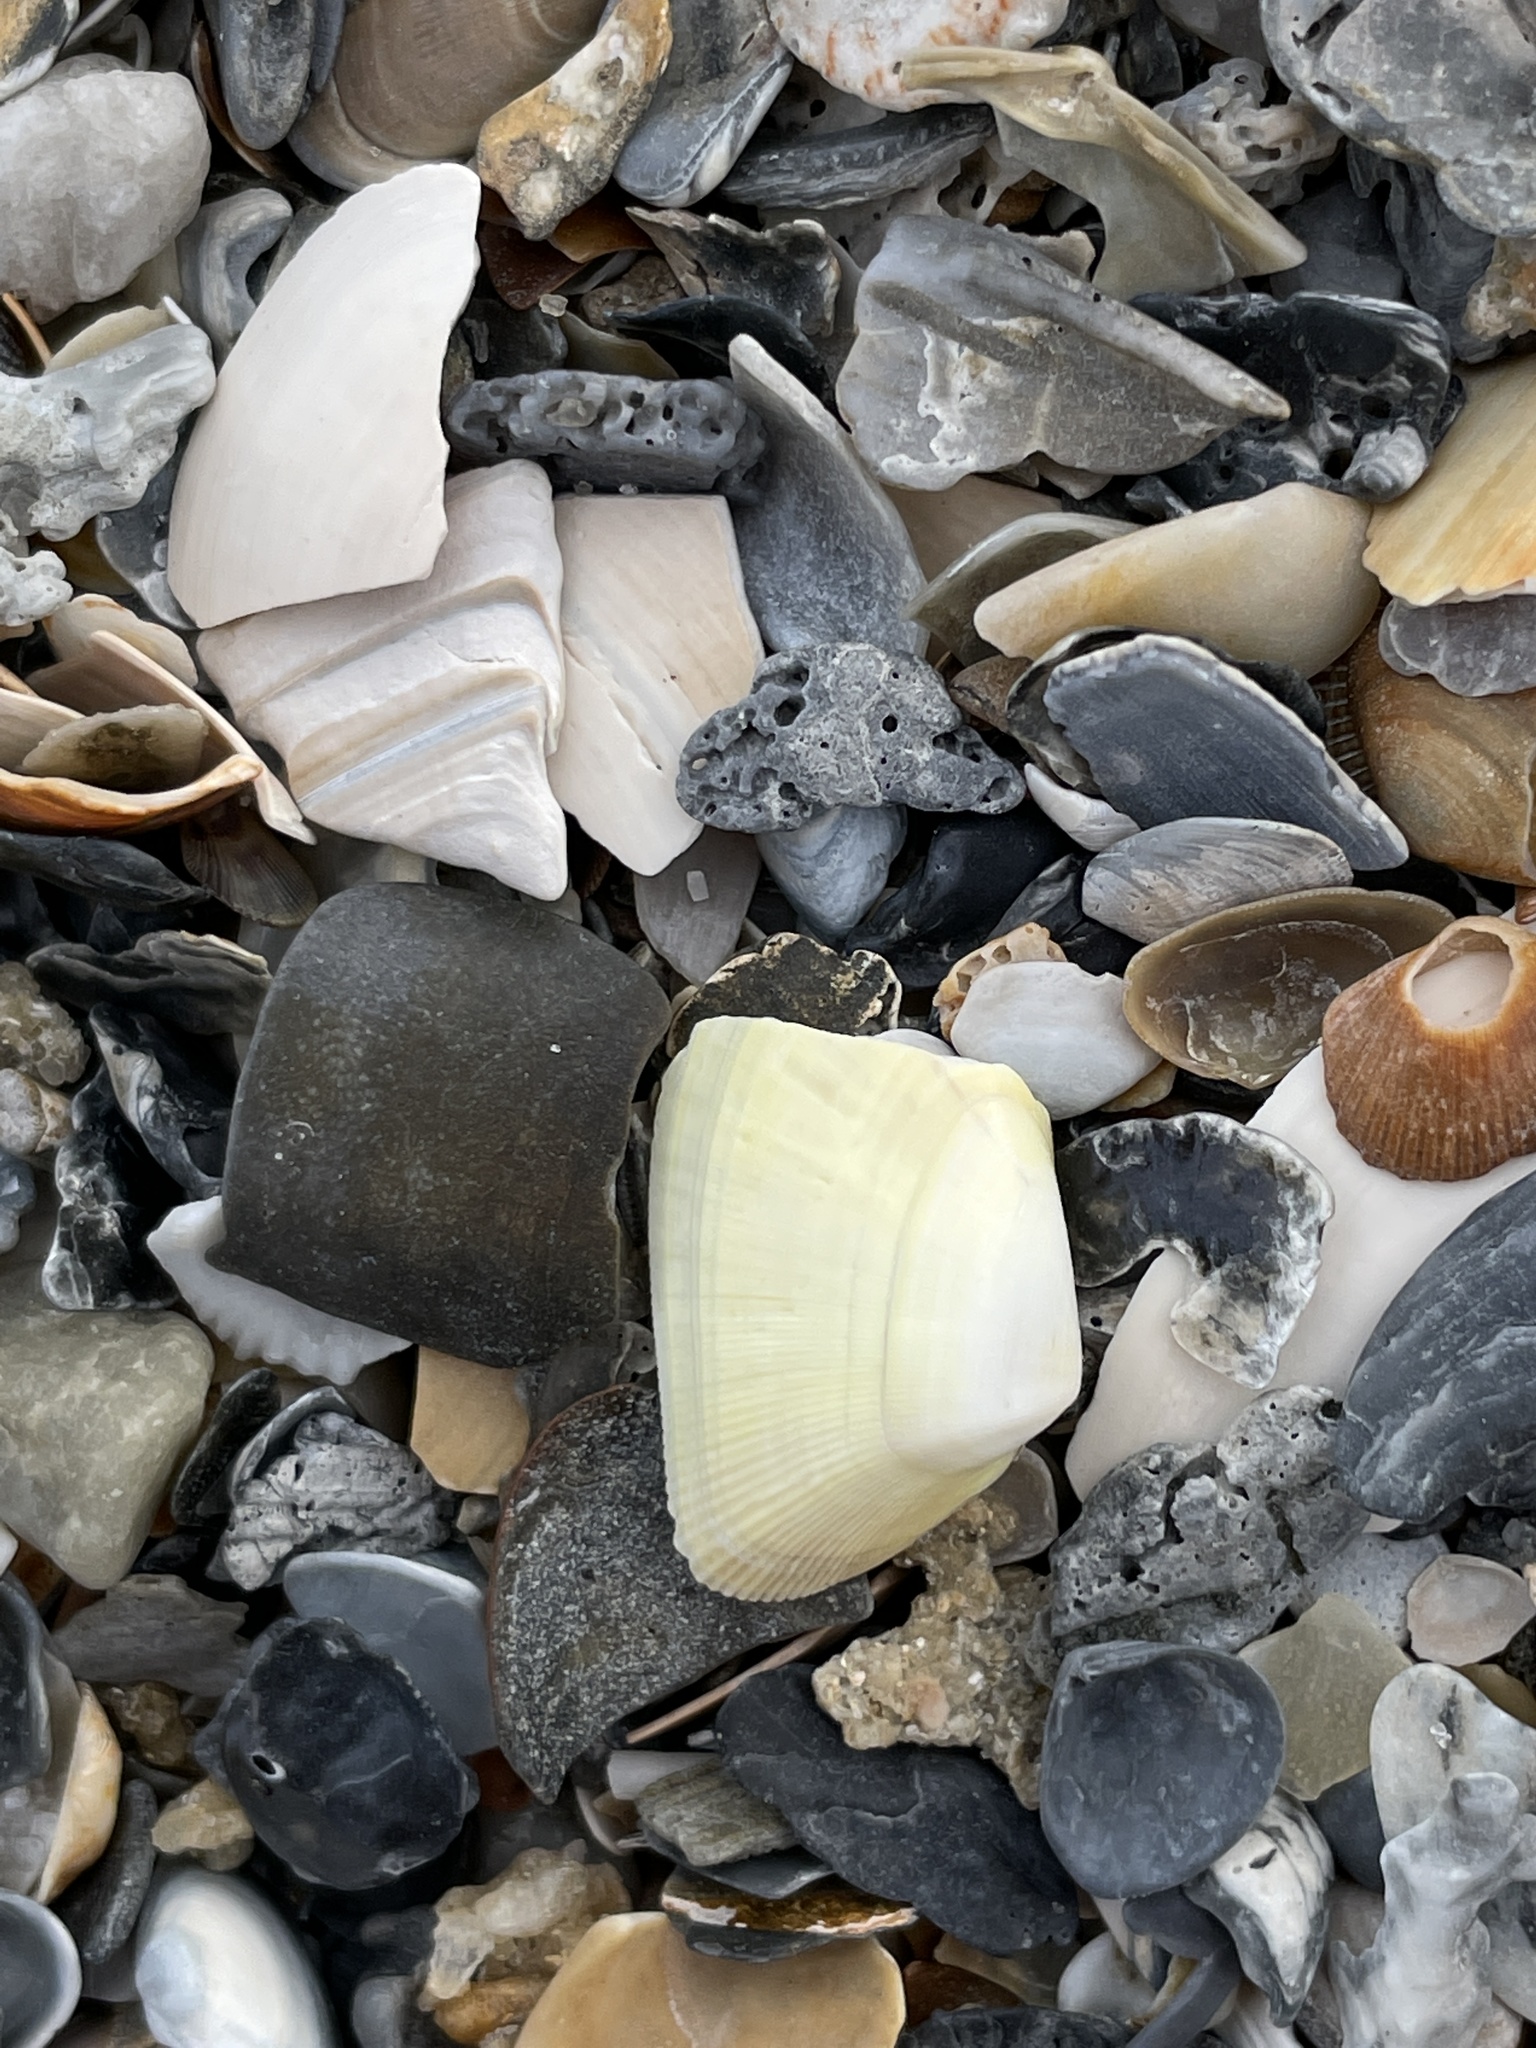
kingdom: Animalia
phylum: Mollusca
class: Bivalvia
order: Cardiida
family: Donacidae
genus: Donax
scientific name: Donax variabilis
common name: Butterfly shell
